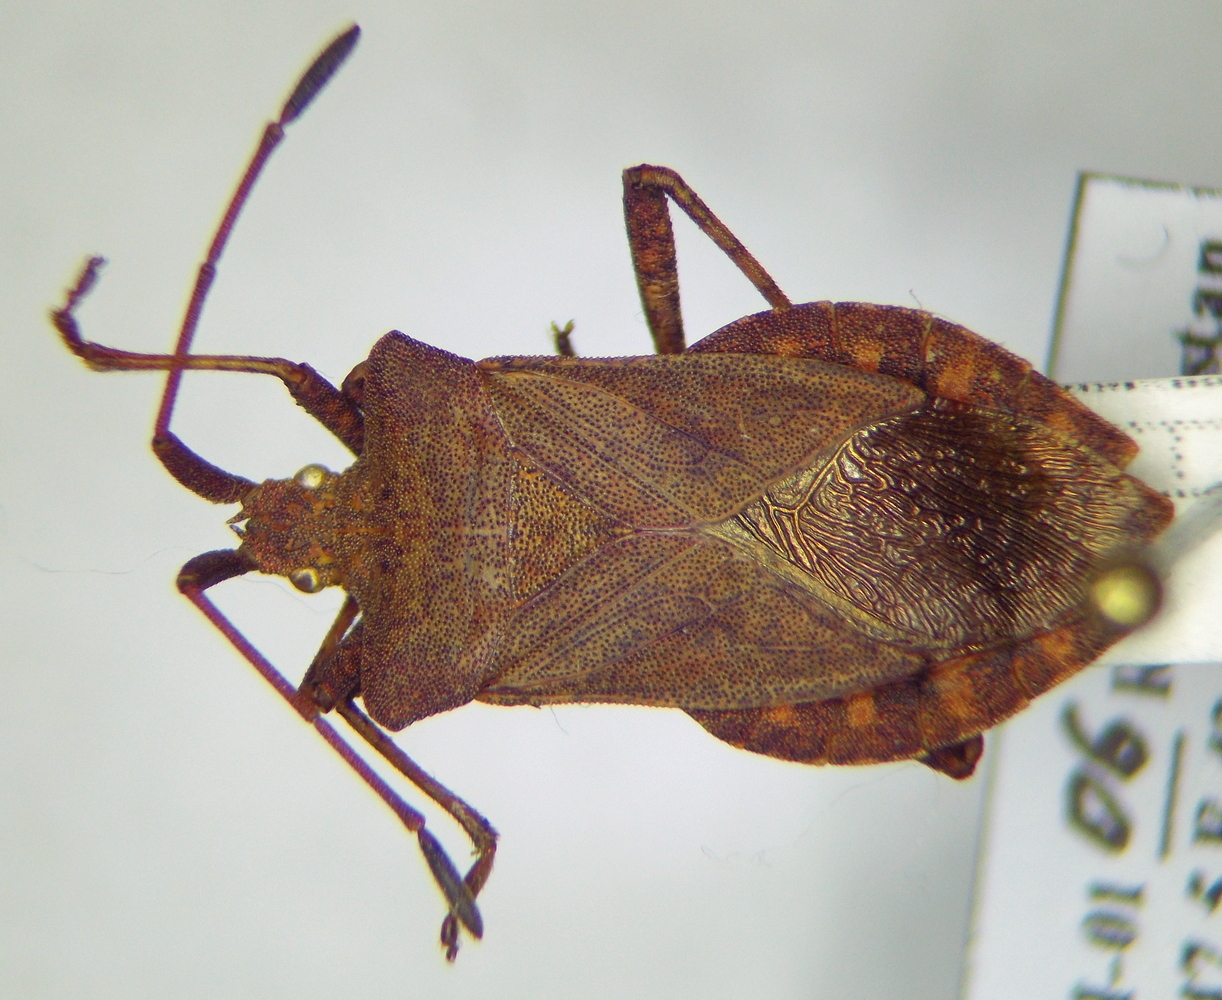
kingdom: Animalia
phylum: Arthropoda
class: Insecta
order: Hemiptera
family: Coreidae
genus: Coreus
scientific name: Coreus marginatus
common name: Dock bug
